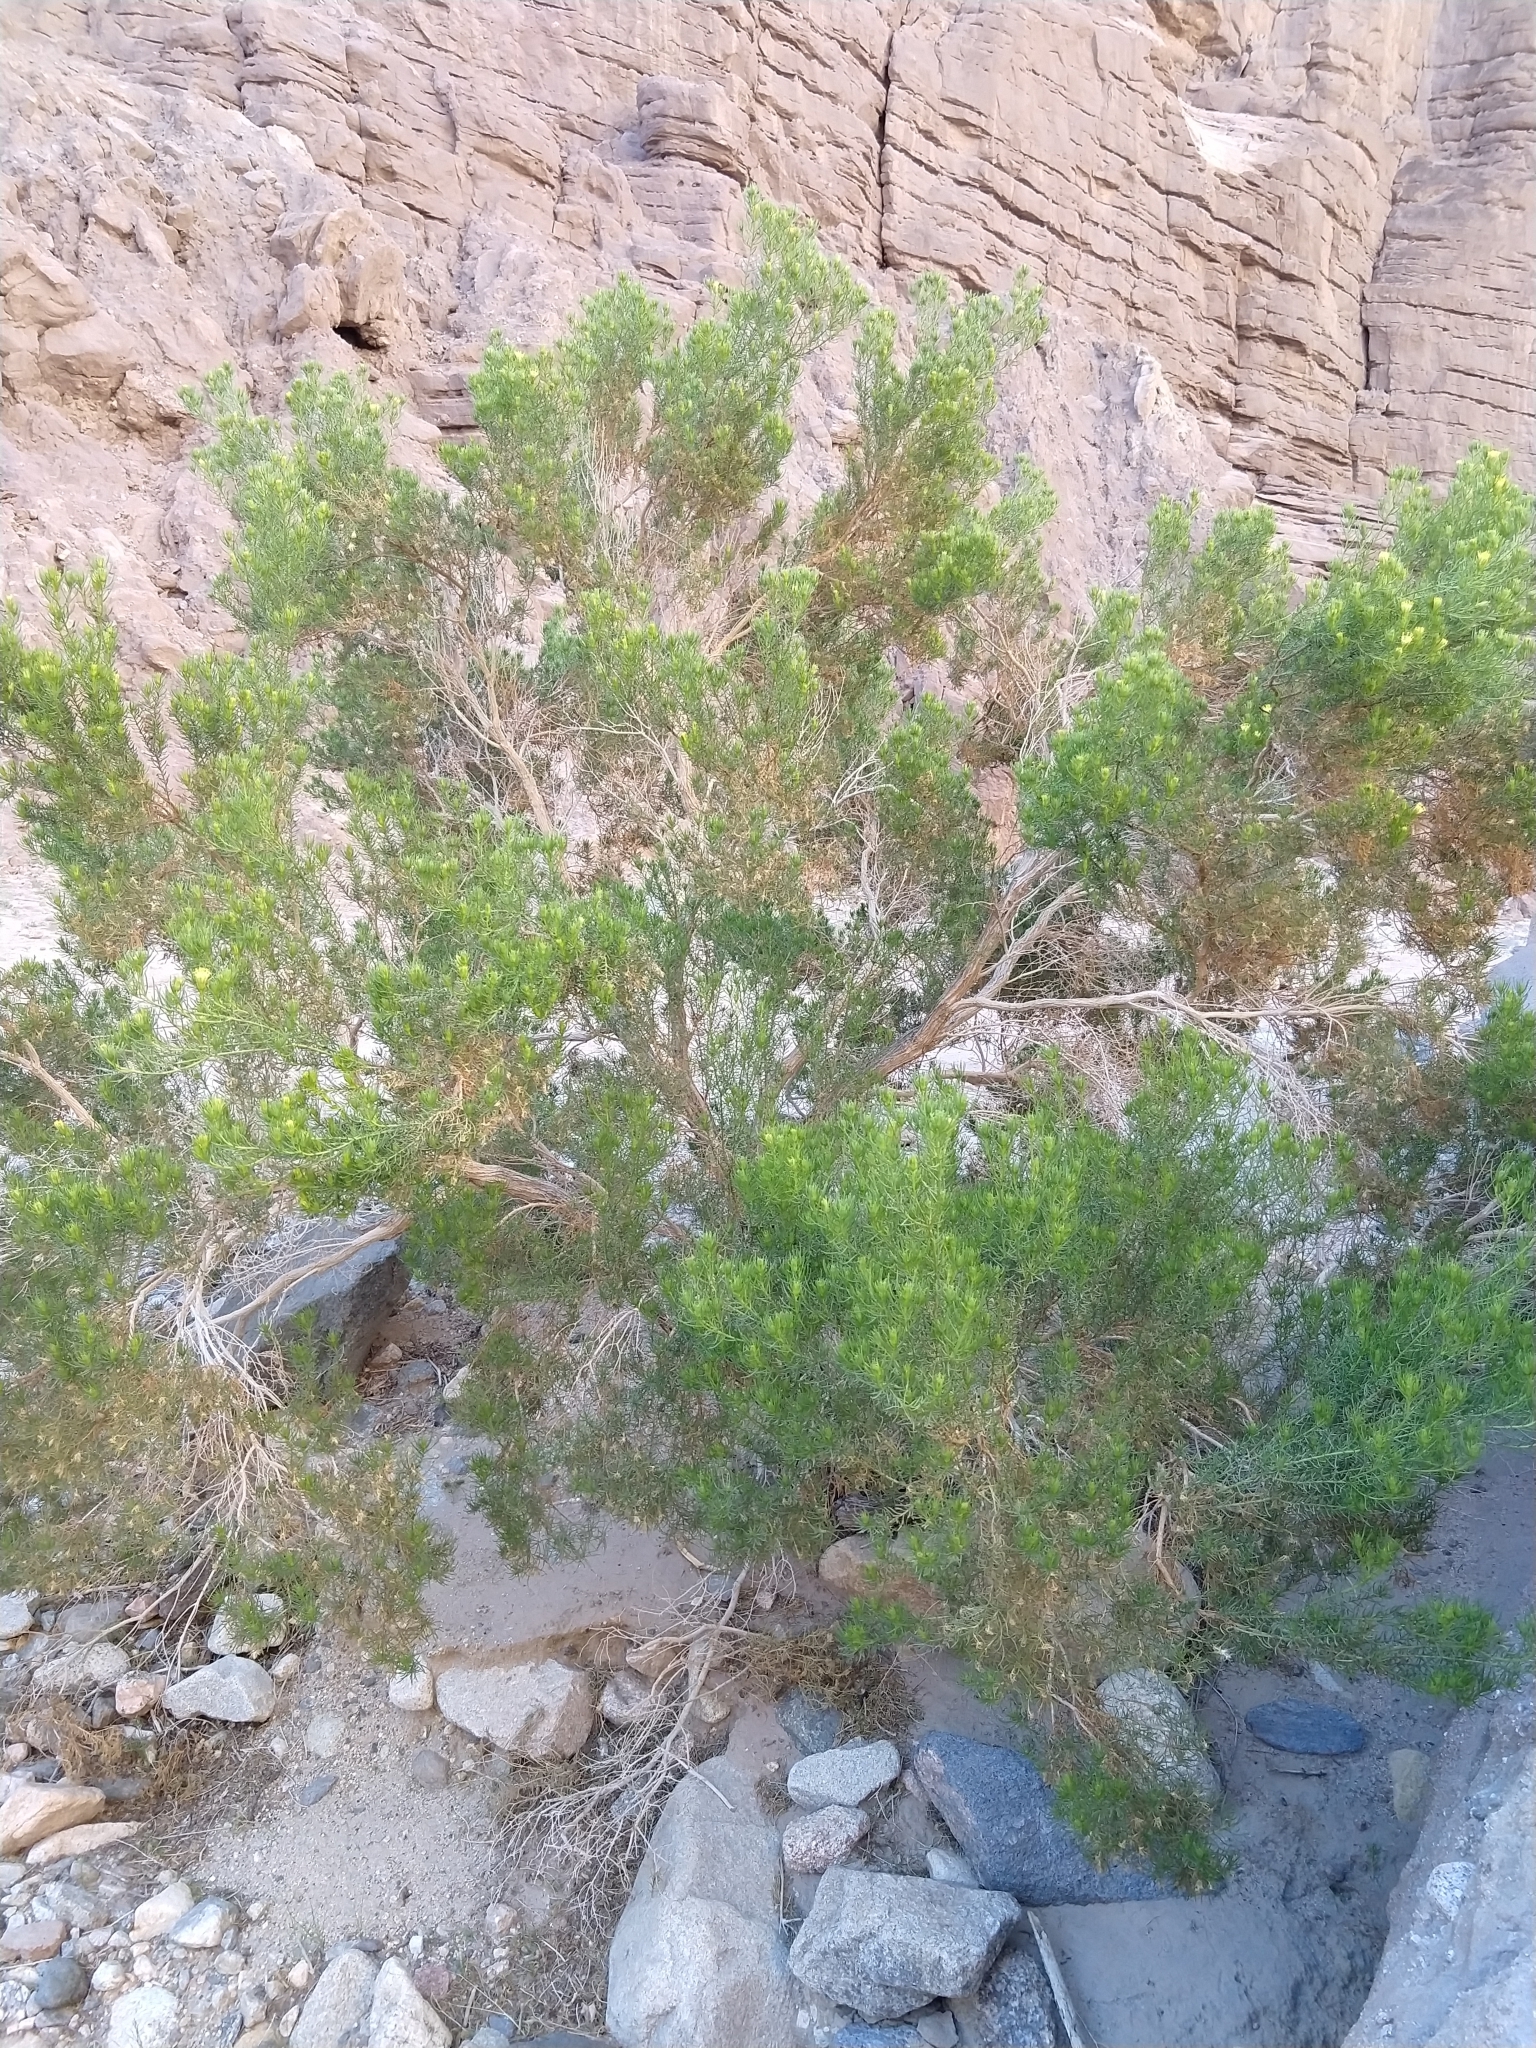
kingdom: Plantae
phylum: Tracheophyta
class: Magnoliopsida
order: Asterales
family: Asteraceae
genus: Peucephyllum
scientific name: Peucephyllum schottii
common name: Pygmy-cedar
